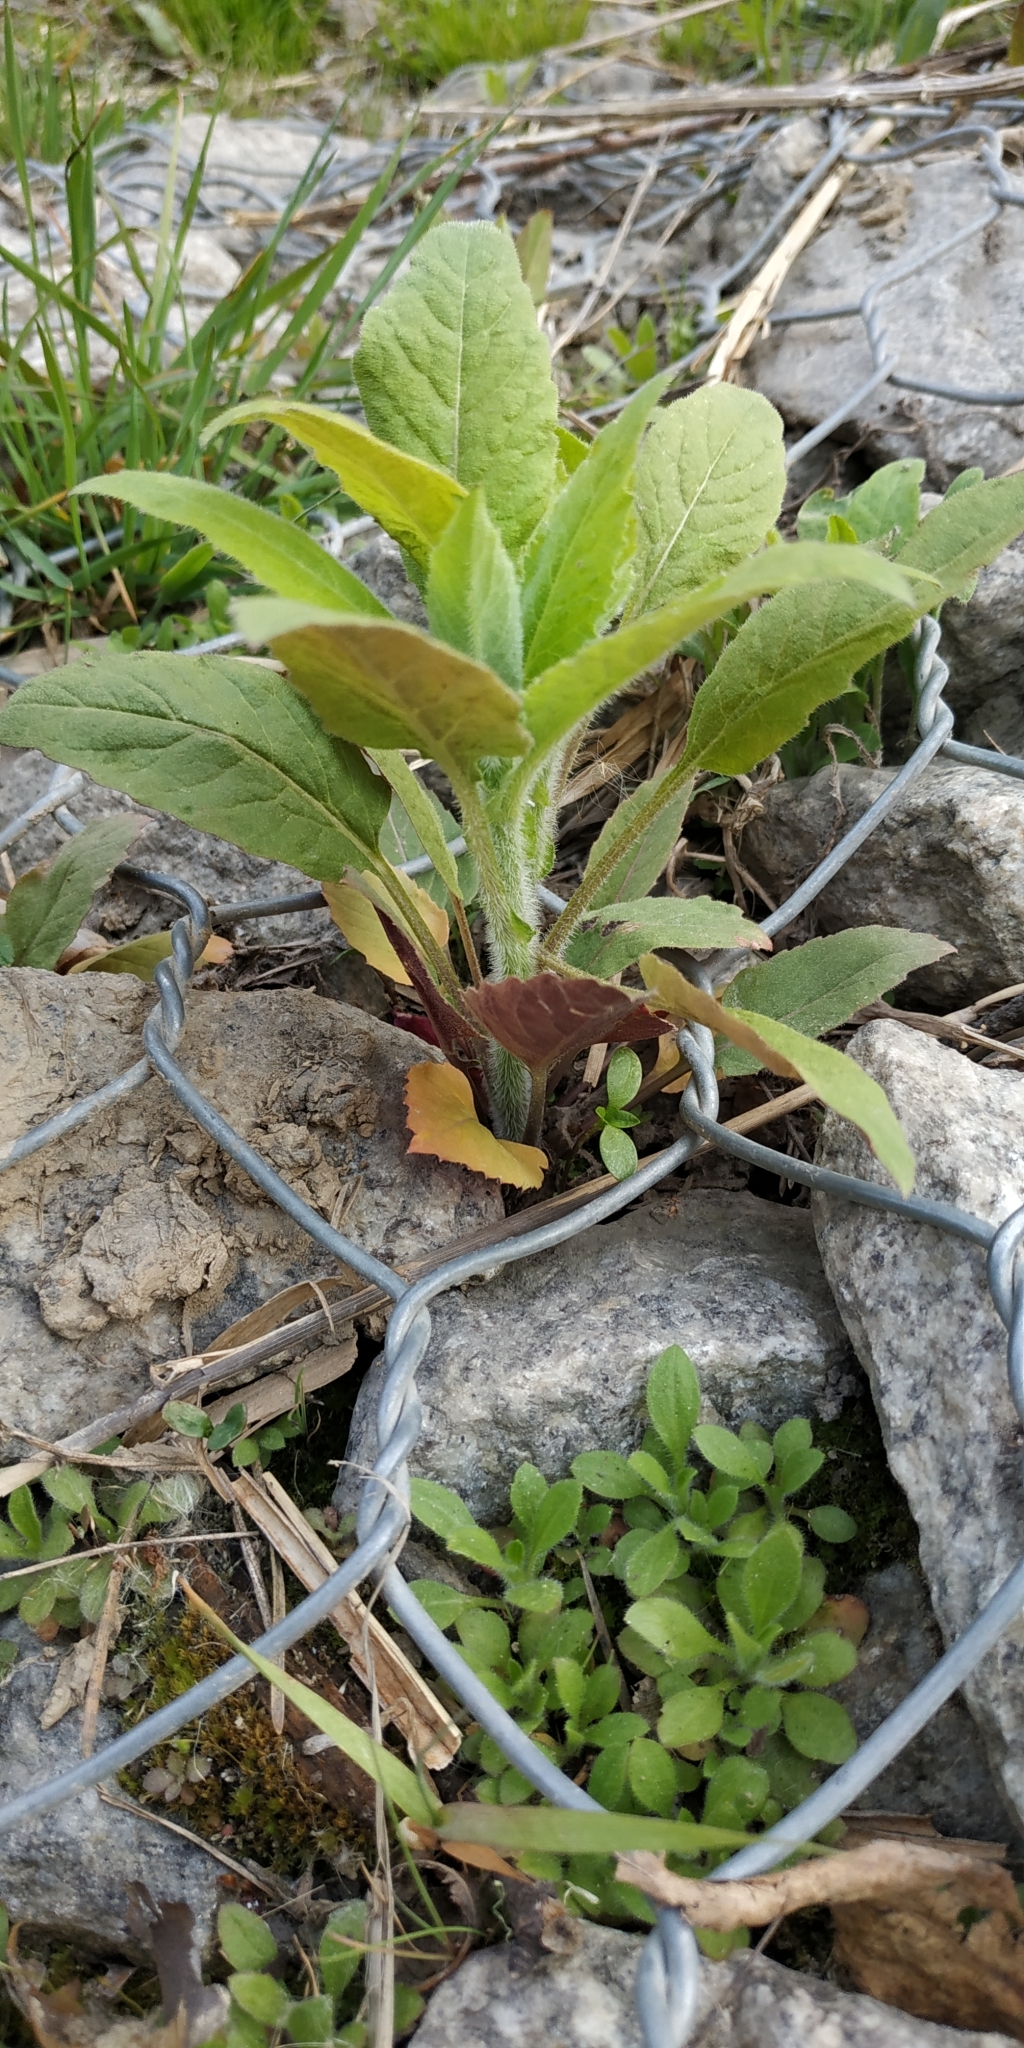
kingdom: Plantae
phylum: Tracheophyta
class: Magnoliopsida
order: Brassicales
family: Brassicaceae
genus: Catolobus
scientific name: Catolobus pendulus
